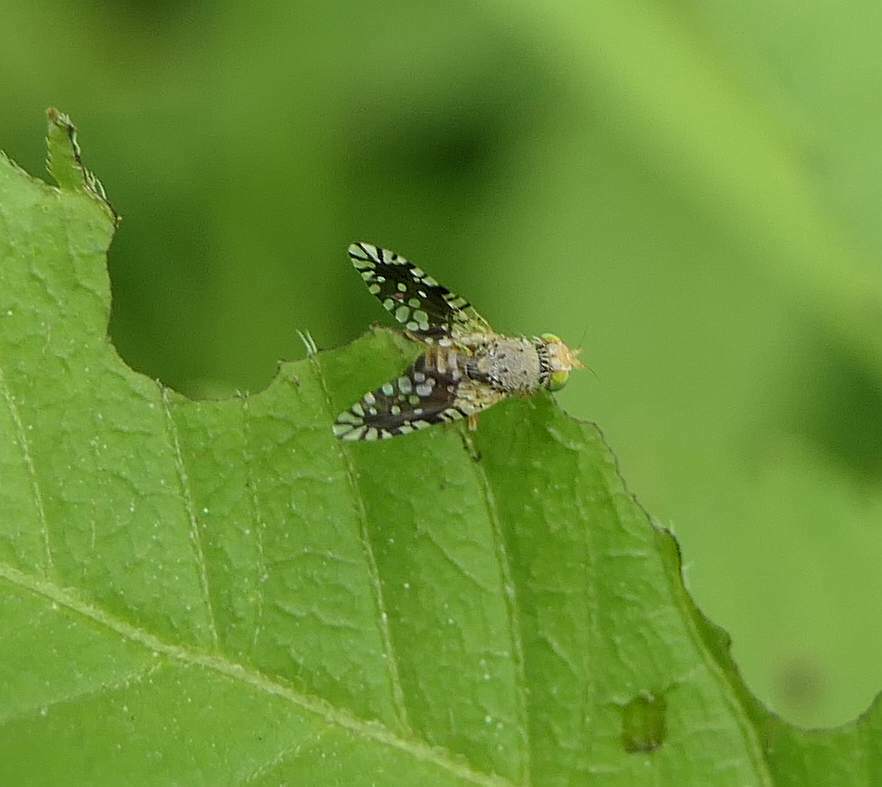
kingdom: Animalia
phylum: Arthropoda
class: Insecta
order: Diptera
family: Tephritidae
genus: Euaresta
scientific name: Euaresta bella
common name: Common ragweed fruit fly
